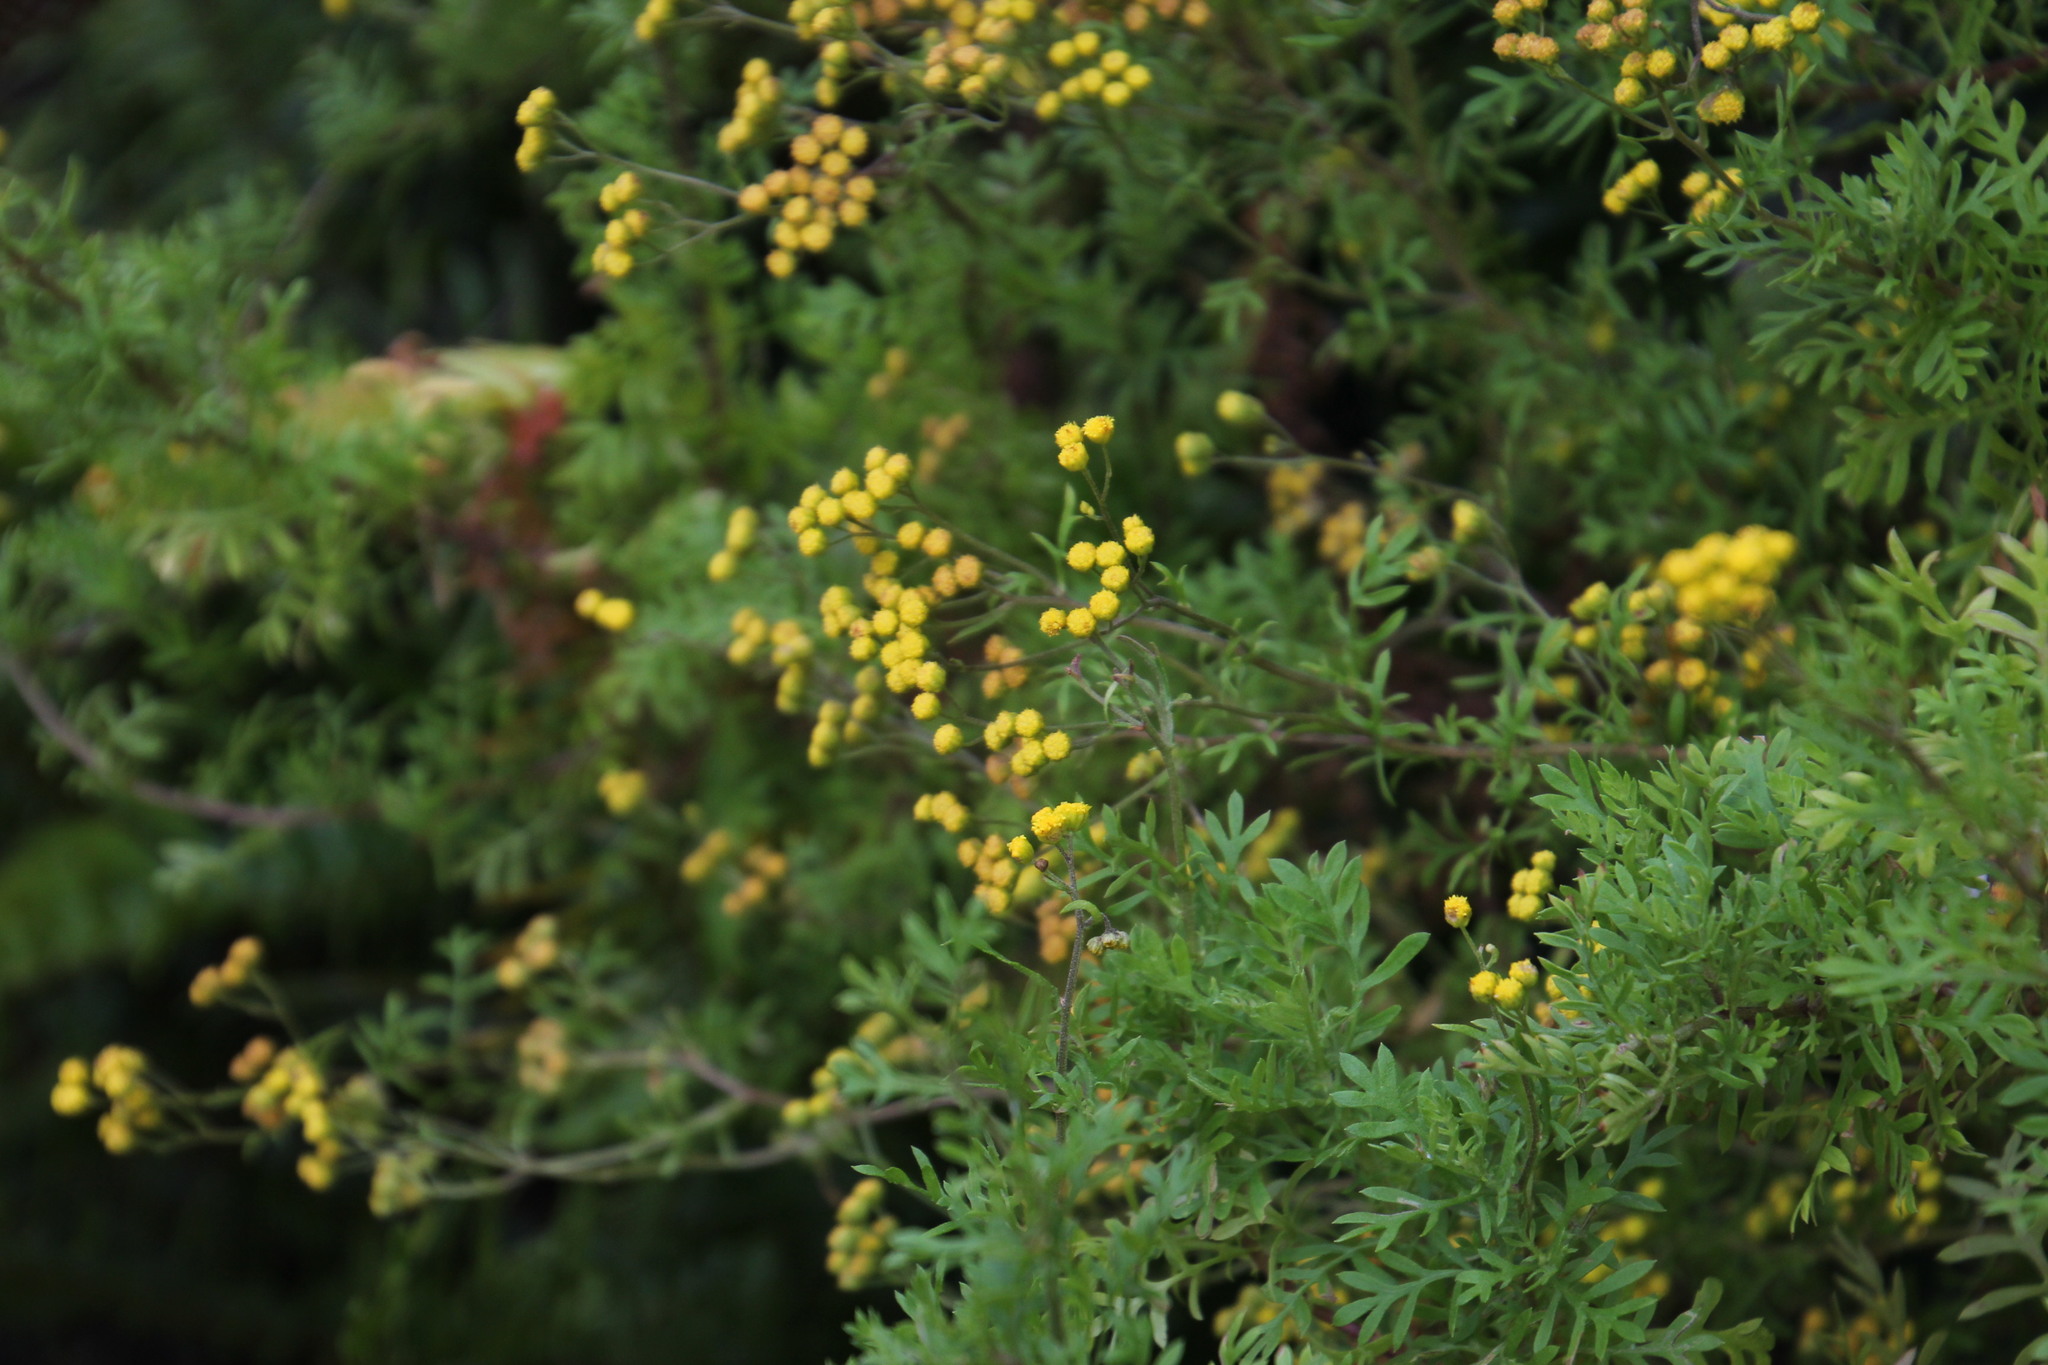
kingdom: Plantae
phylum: Tracheophyta
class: Magnoliopsida
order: Asterales
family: Asteraceae
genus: Hippia
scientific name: Hippia frutescens
